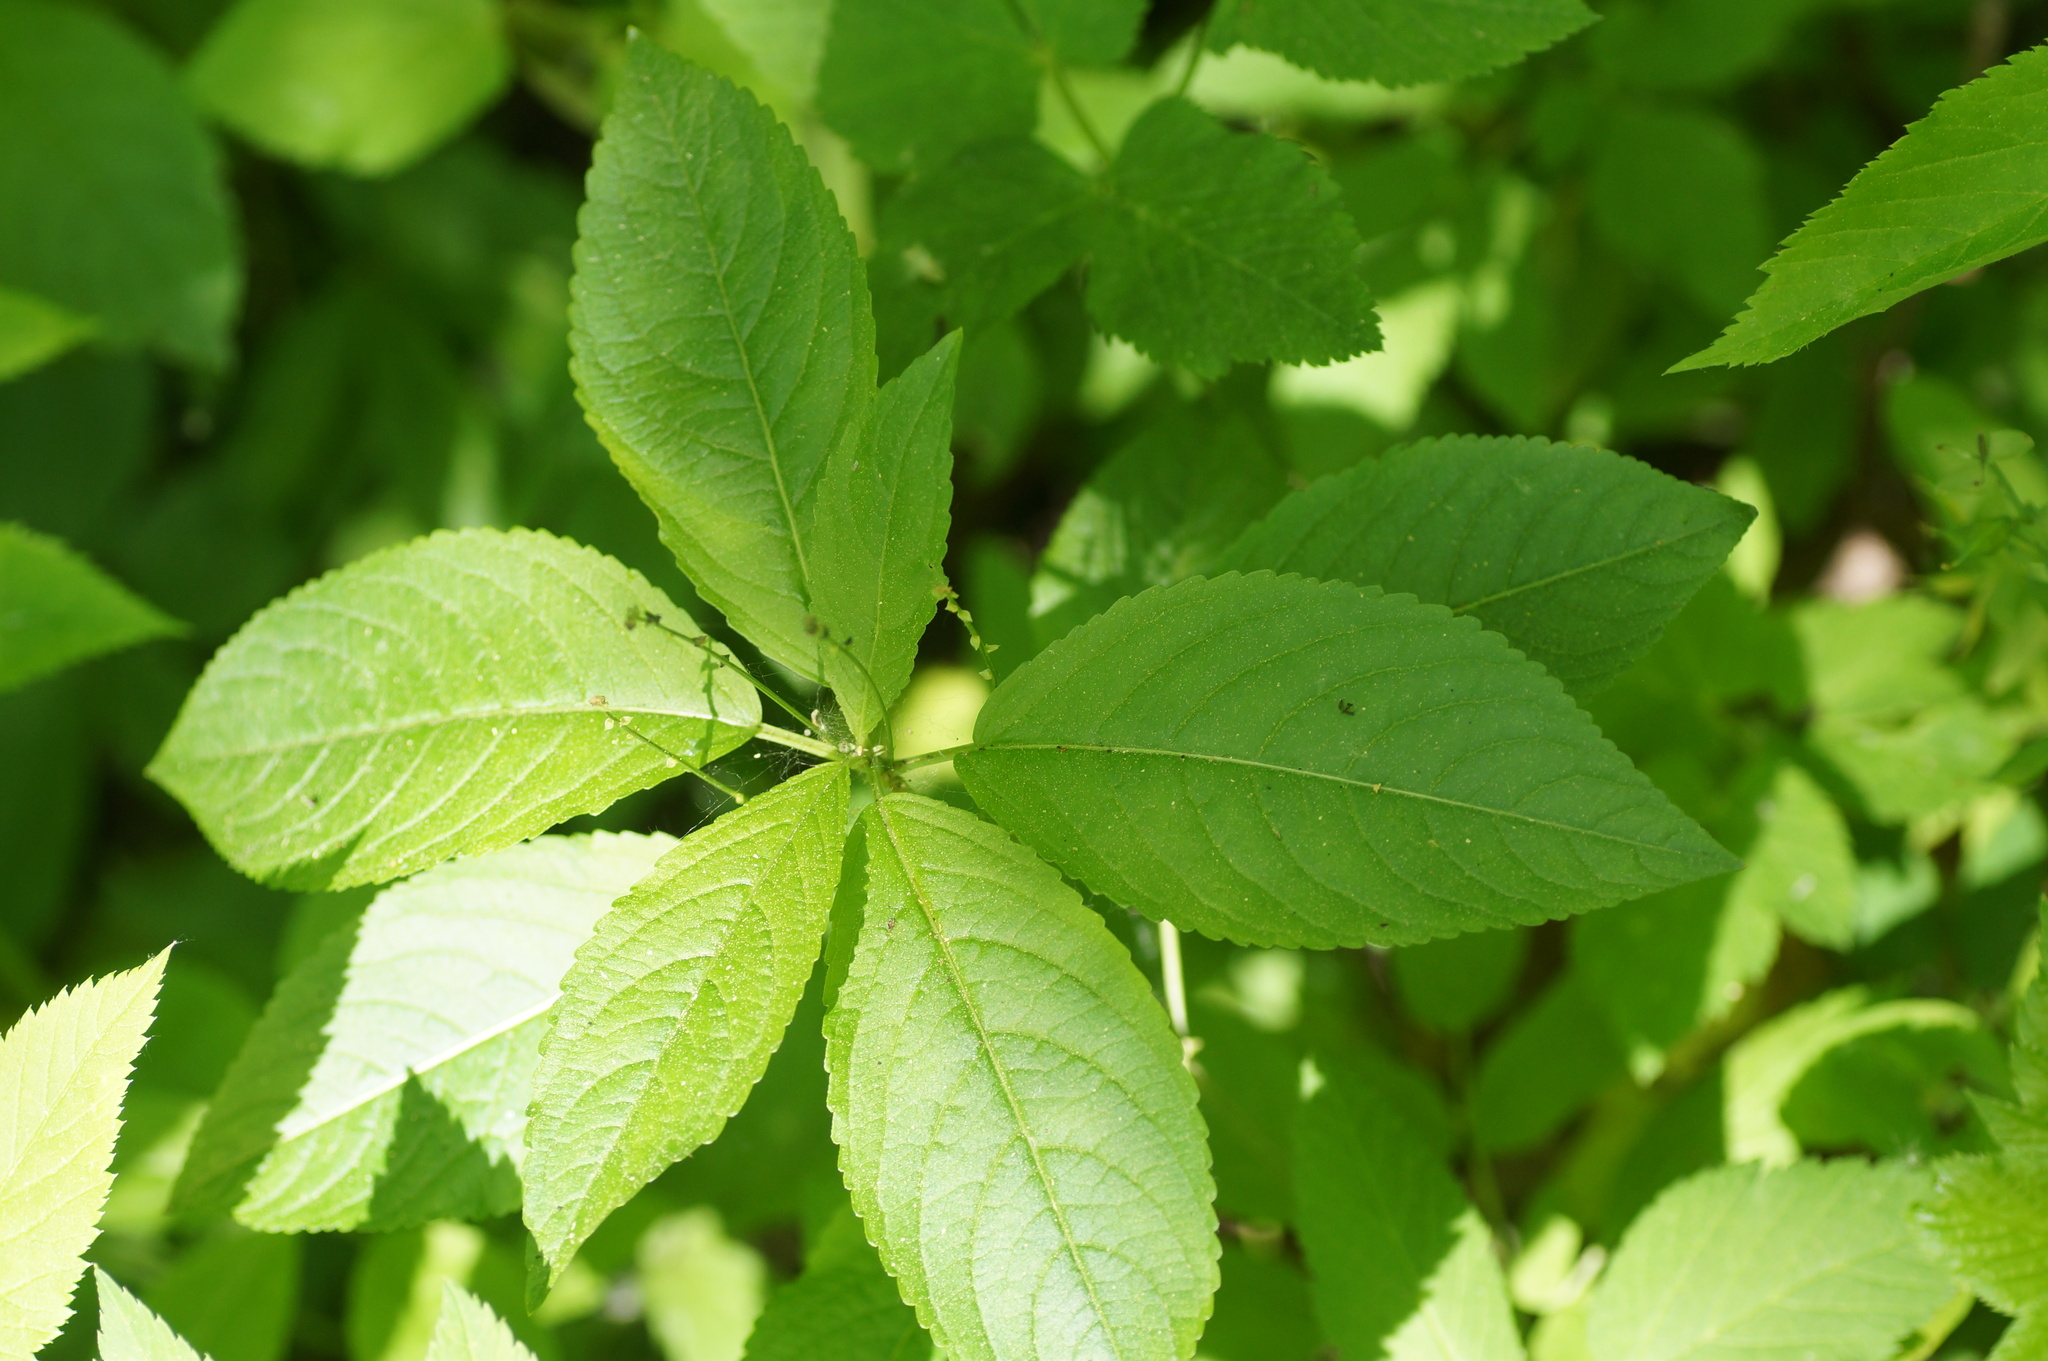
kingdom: Plantae
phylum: Tracheophyta
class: Magnoliopsida
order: Malpighiales
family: Euphorbiaceae
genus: Mercurialis
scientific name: Mercurialis perennis
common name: Dog mercury
